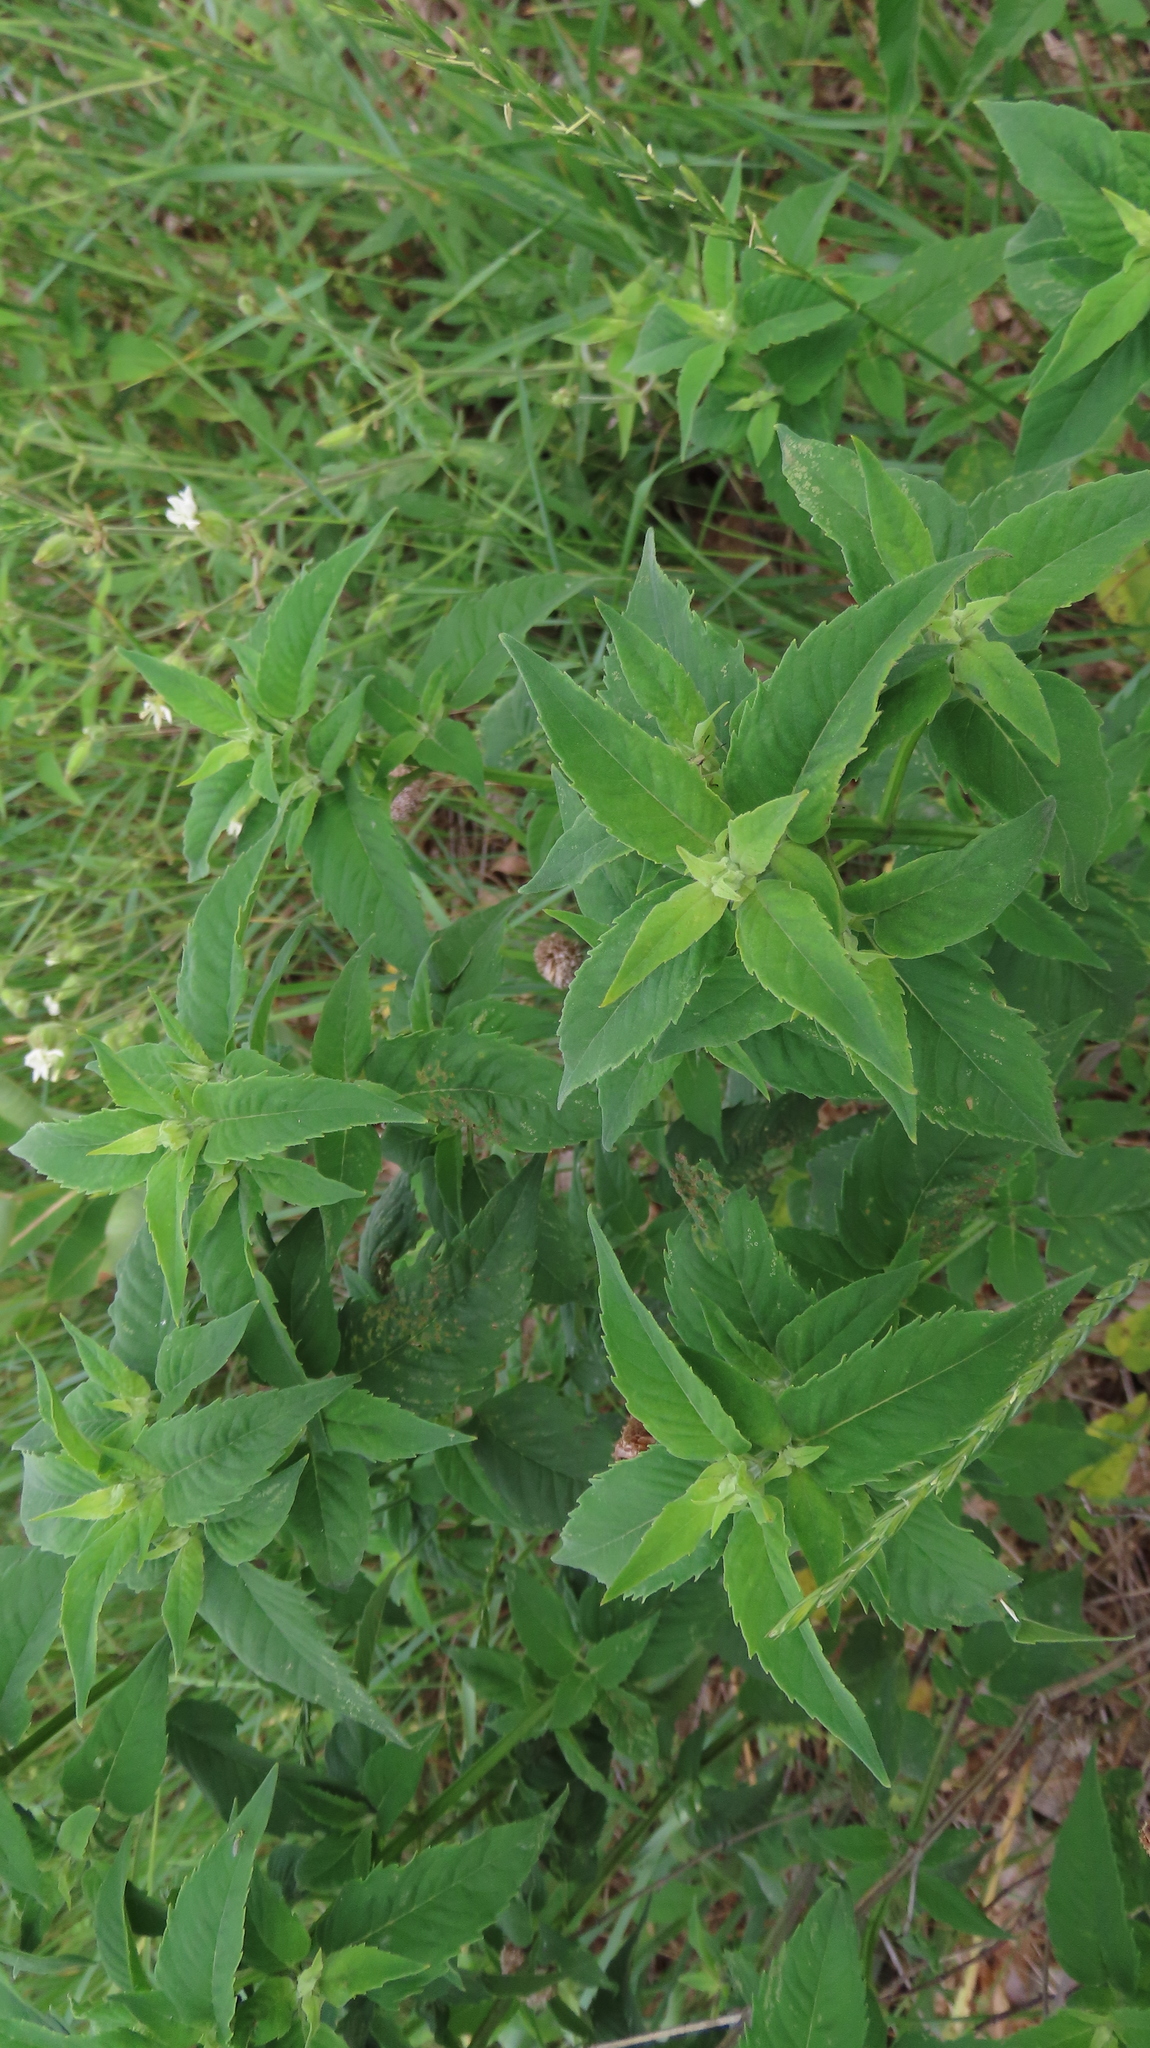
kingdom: Plantae
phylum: Tracheophyta
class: Magnoliopsida
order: Lamiales
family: Lamiaceae
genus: Monarda
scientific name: Monarda fistulosa
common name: Purple beebalm
